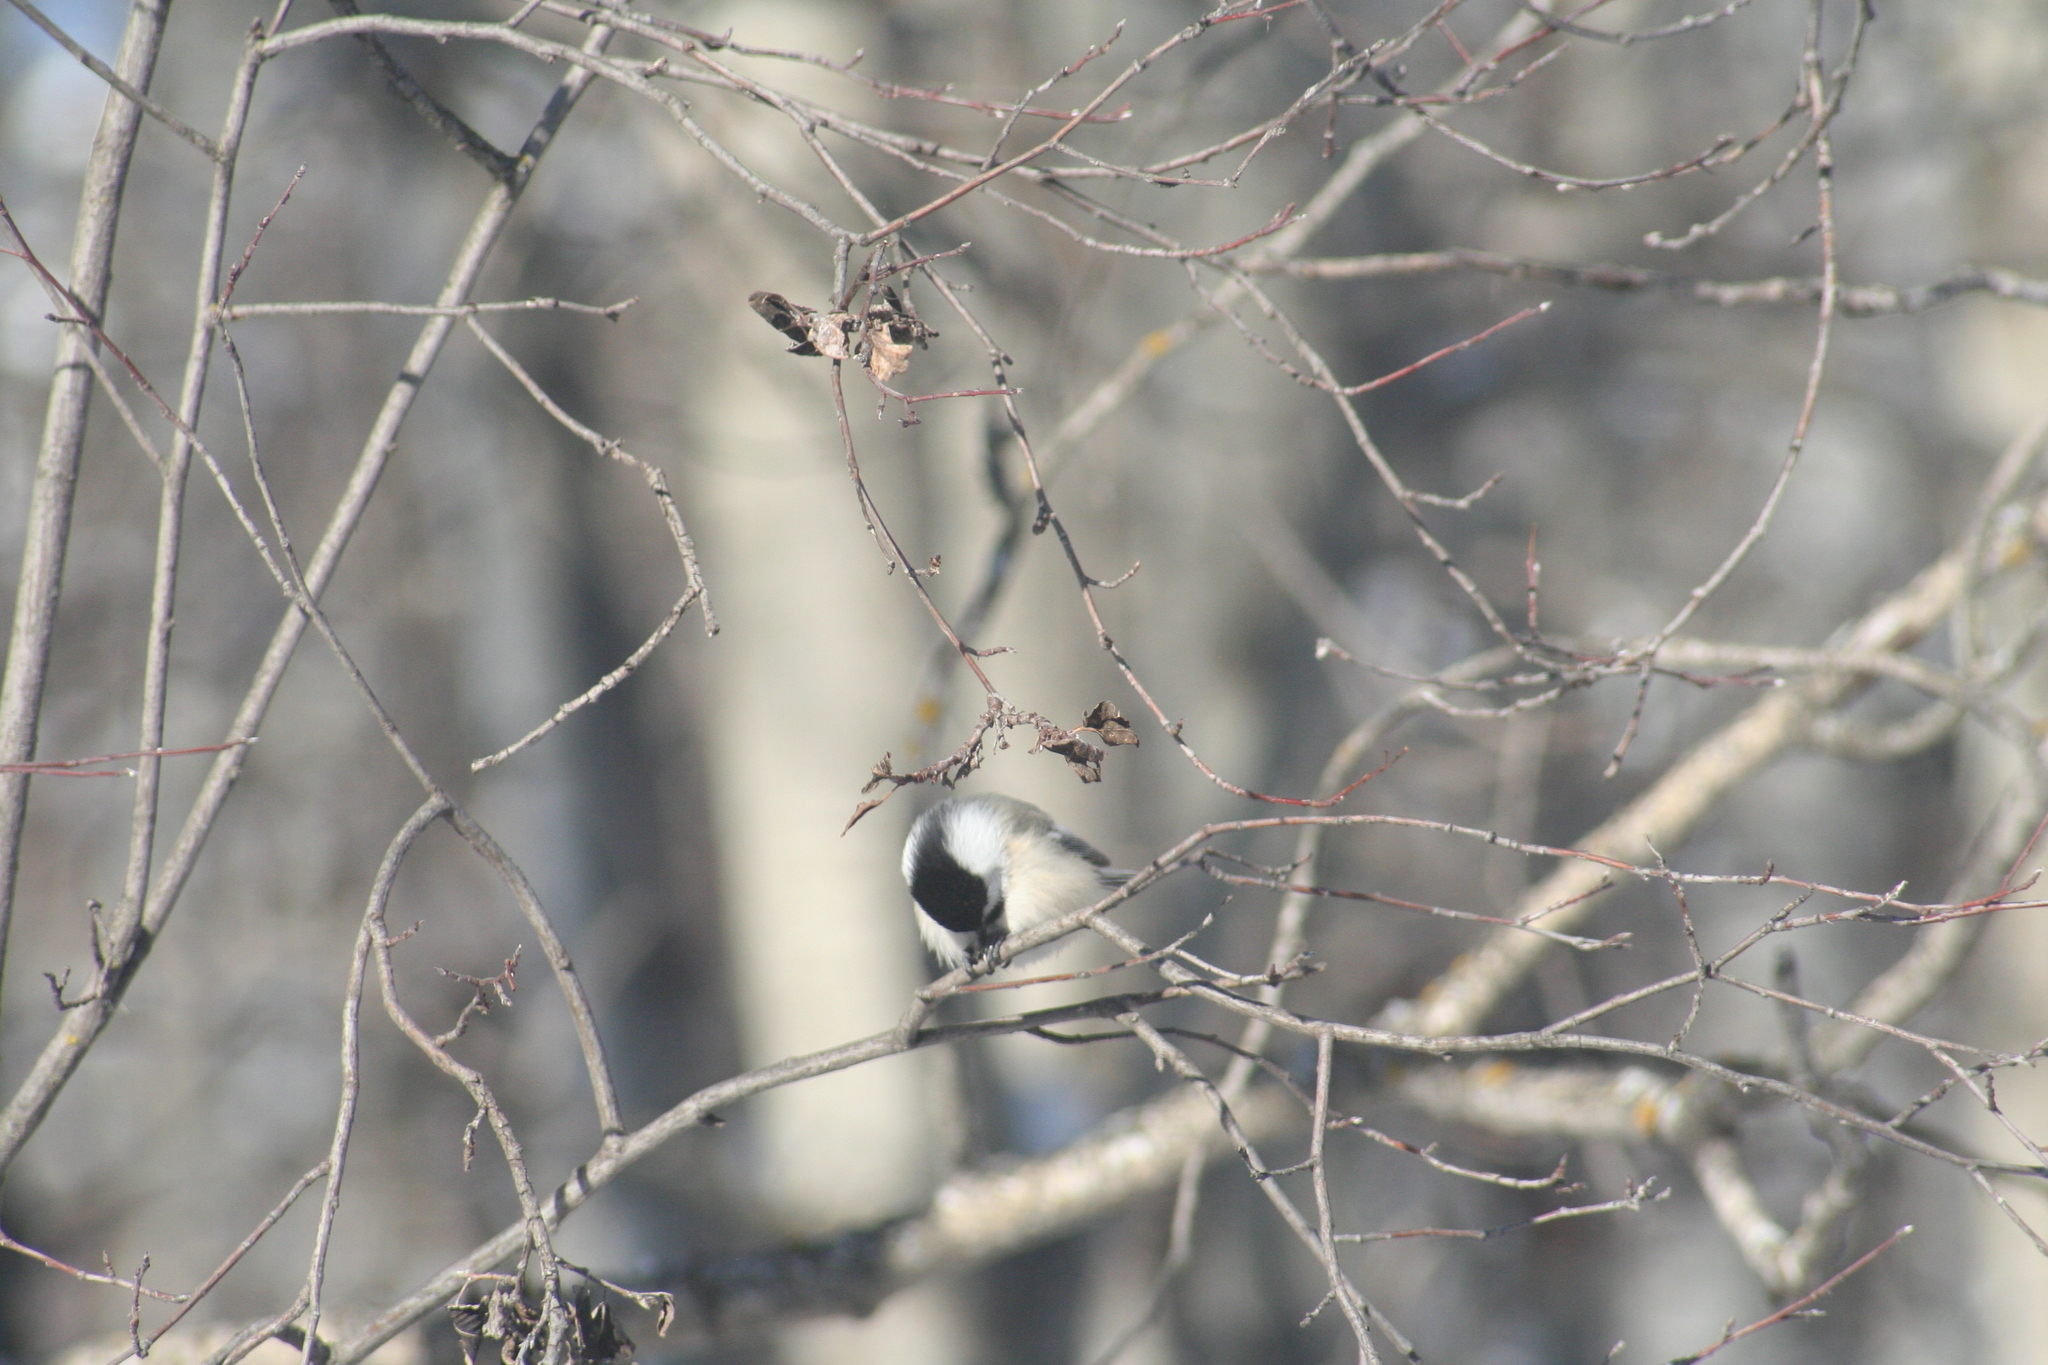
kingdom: Animalia
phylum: Chordata
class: Aves
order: Passeriformes
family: Paridae
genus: Poecile
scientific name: Poecile atricapillus
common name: Black-capped chickadee
